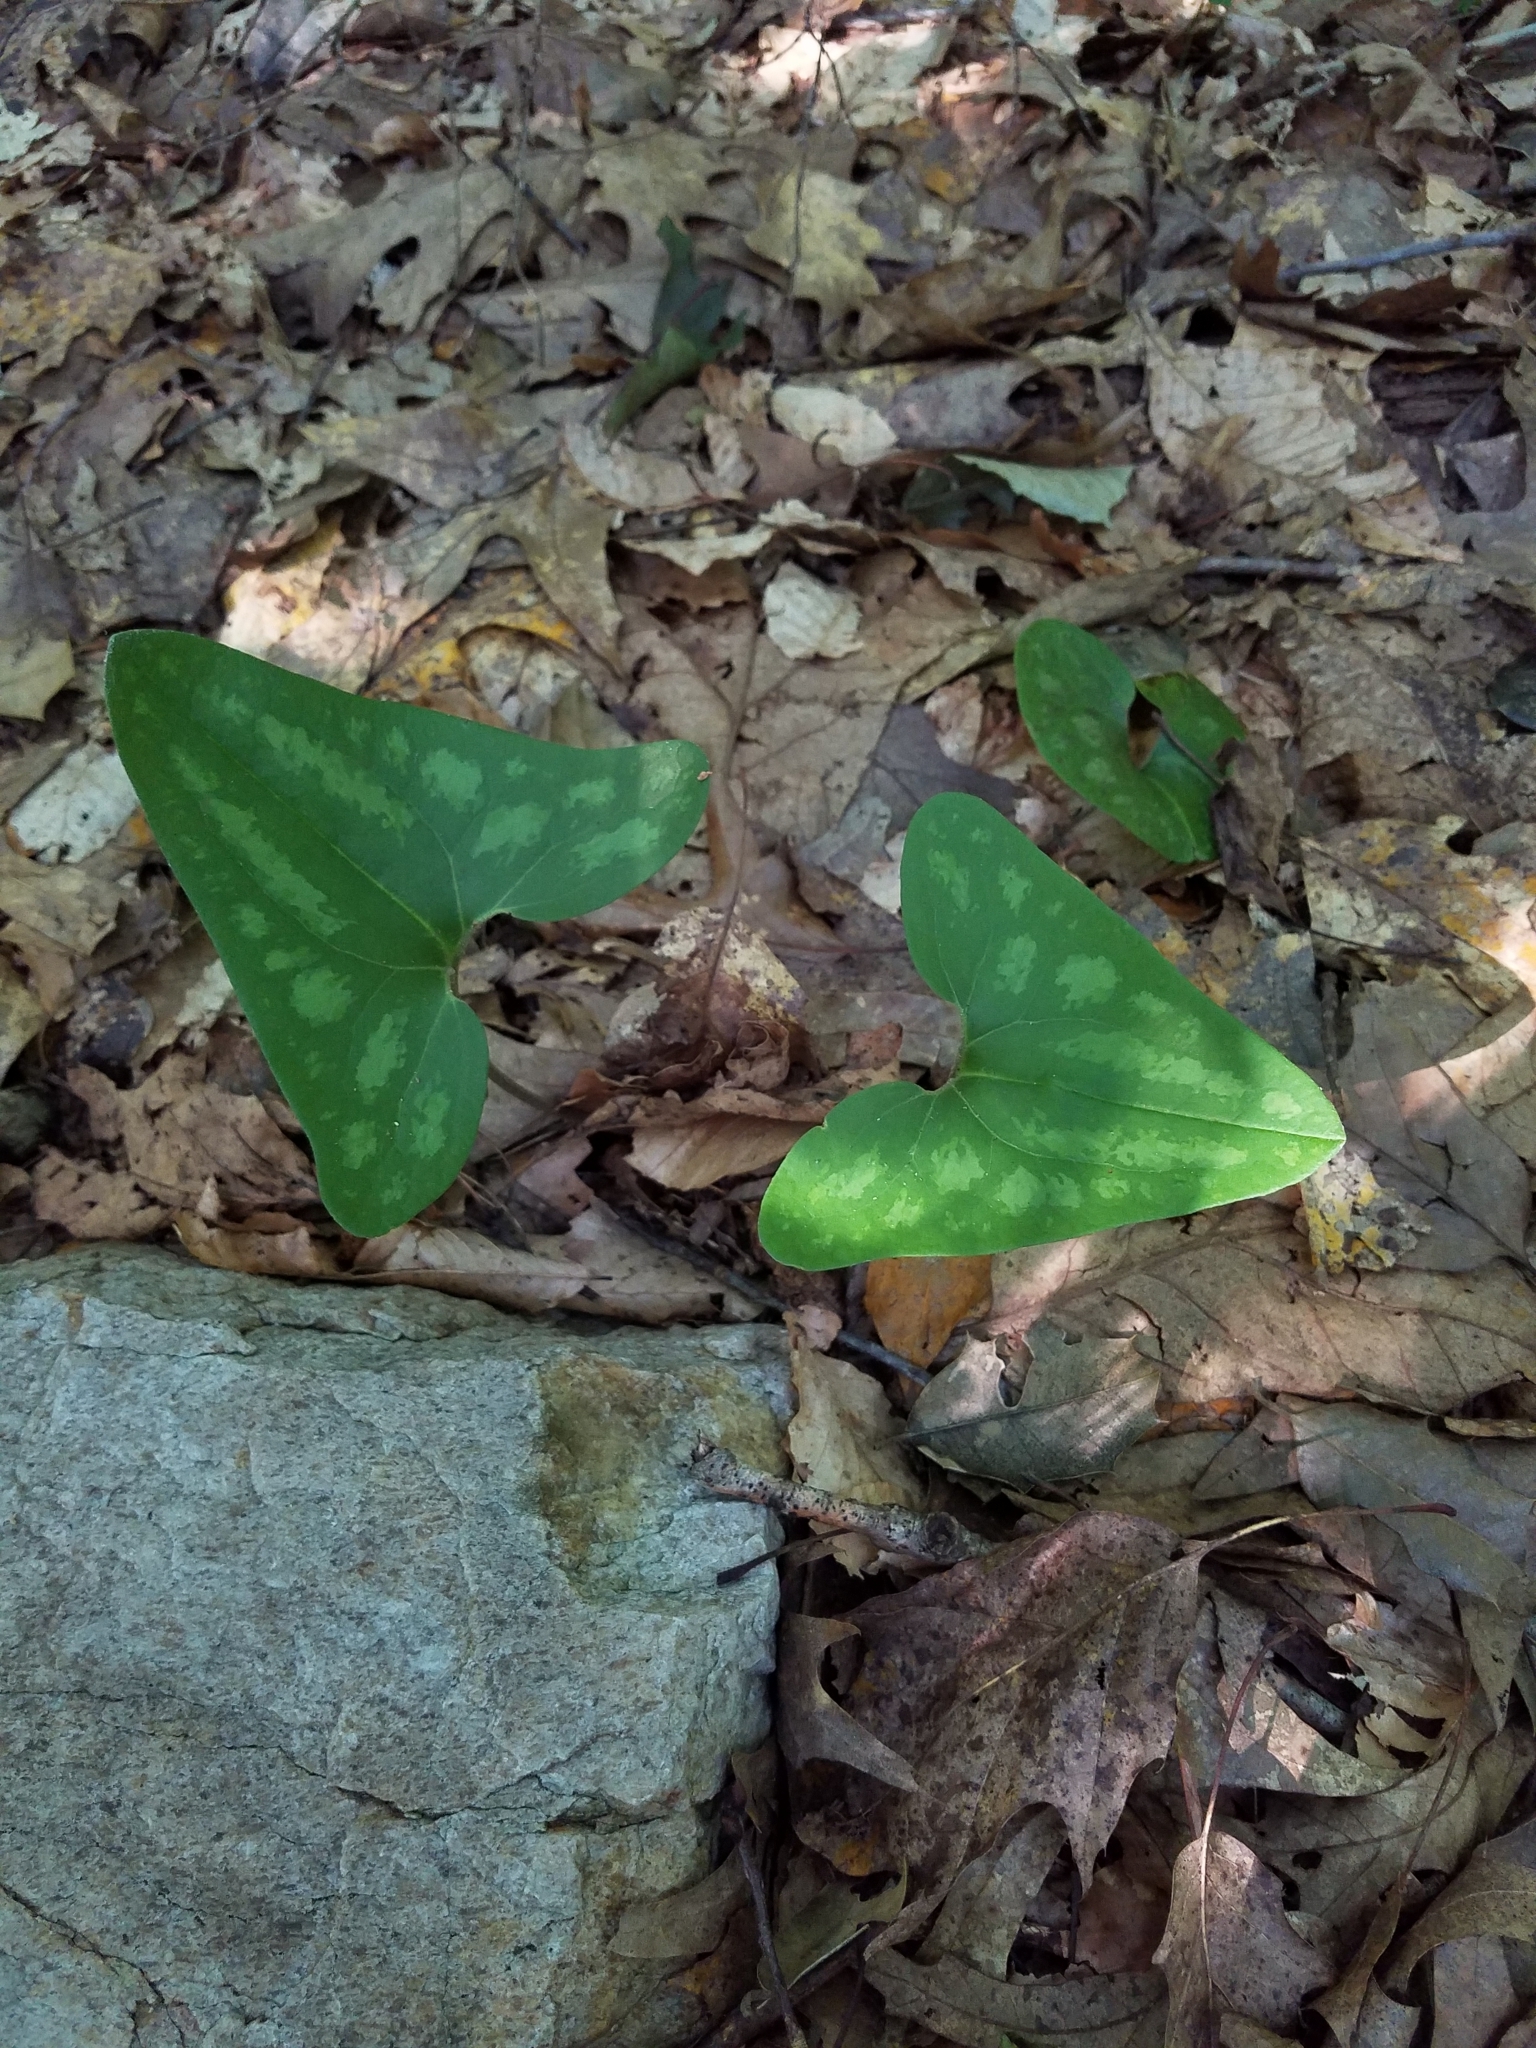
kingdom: Plantae
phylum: Tracheophyta
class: Magnoliopsida
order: Piperales
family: Aristolochiaceae
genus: Hexastylis
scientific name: Hexastylis arifolia
